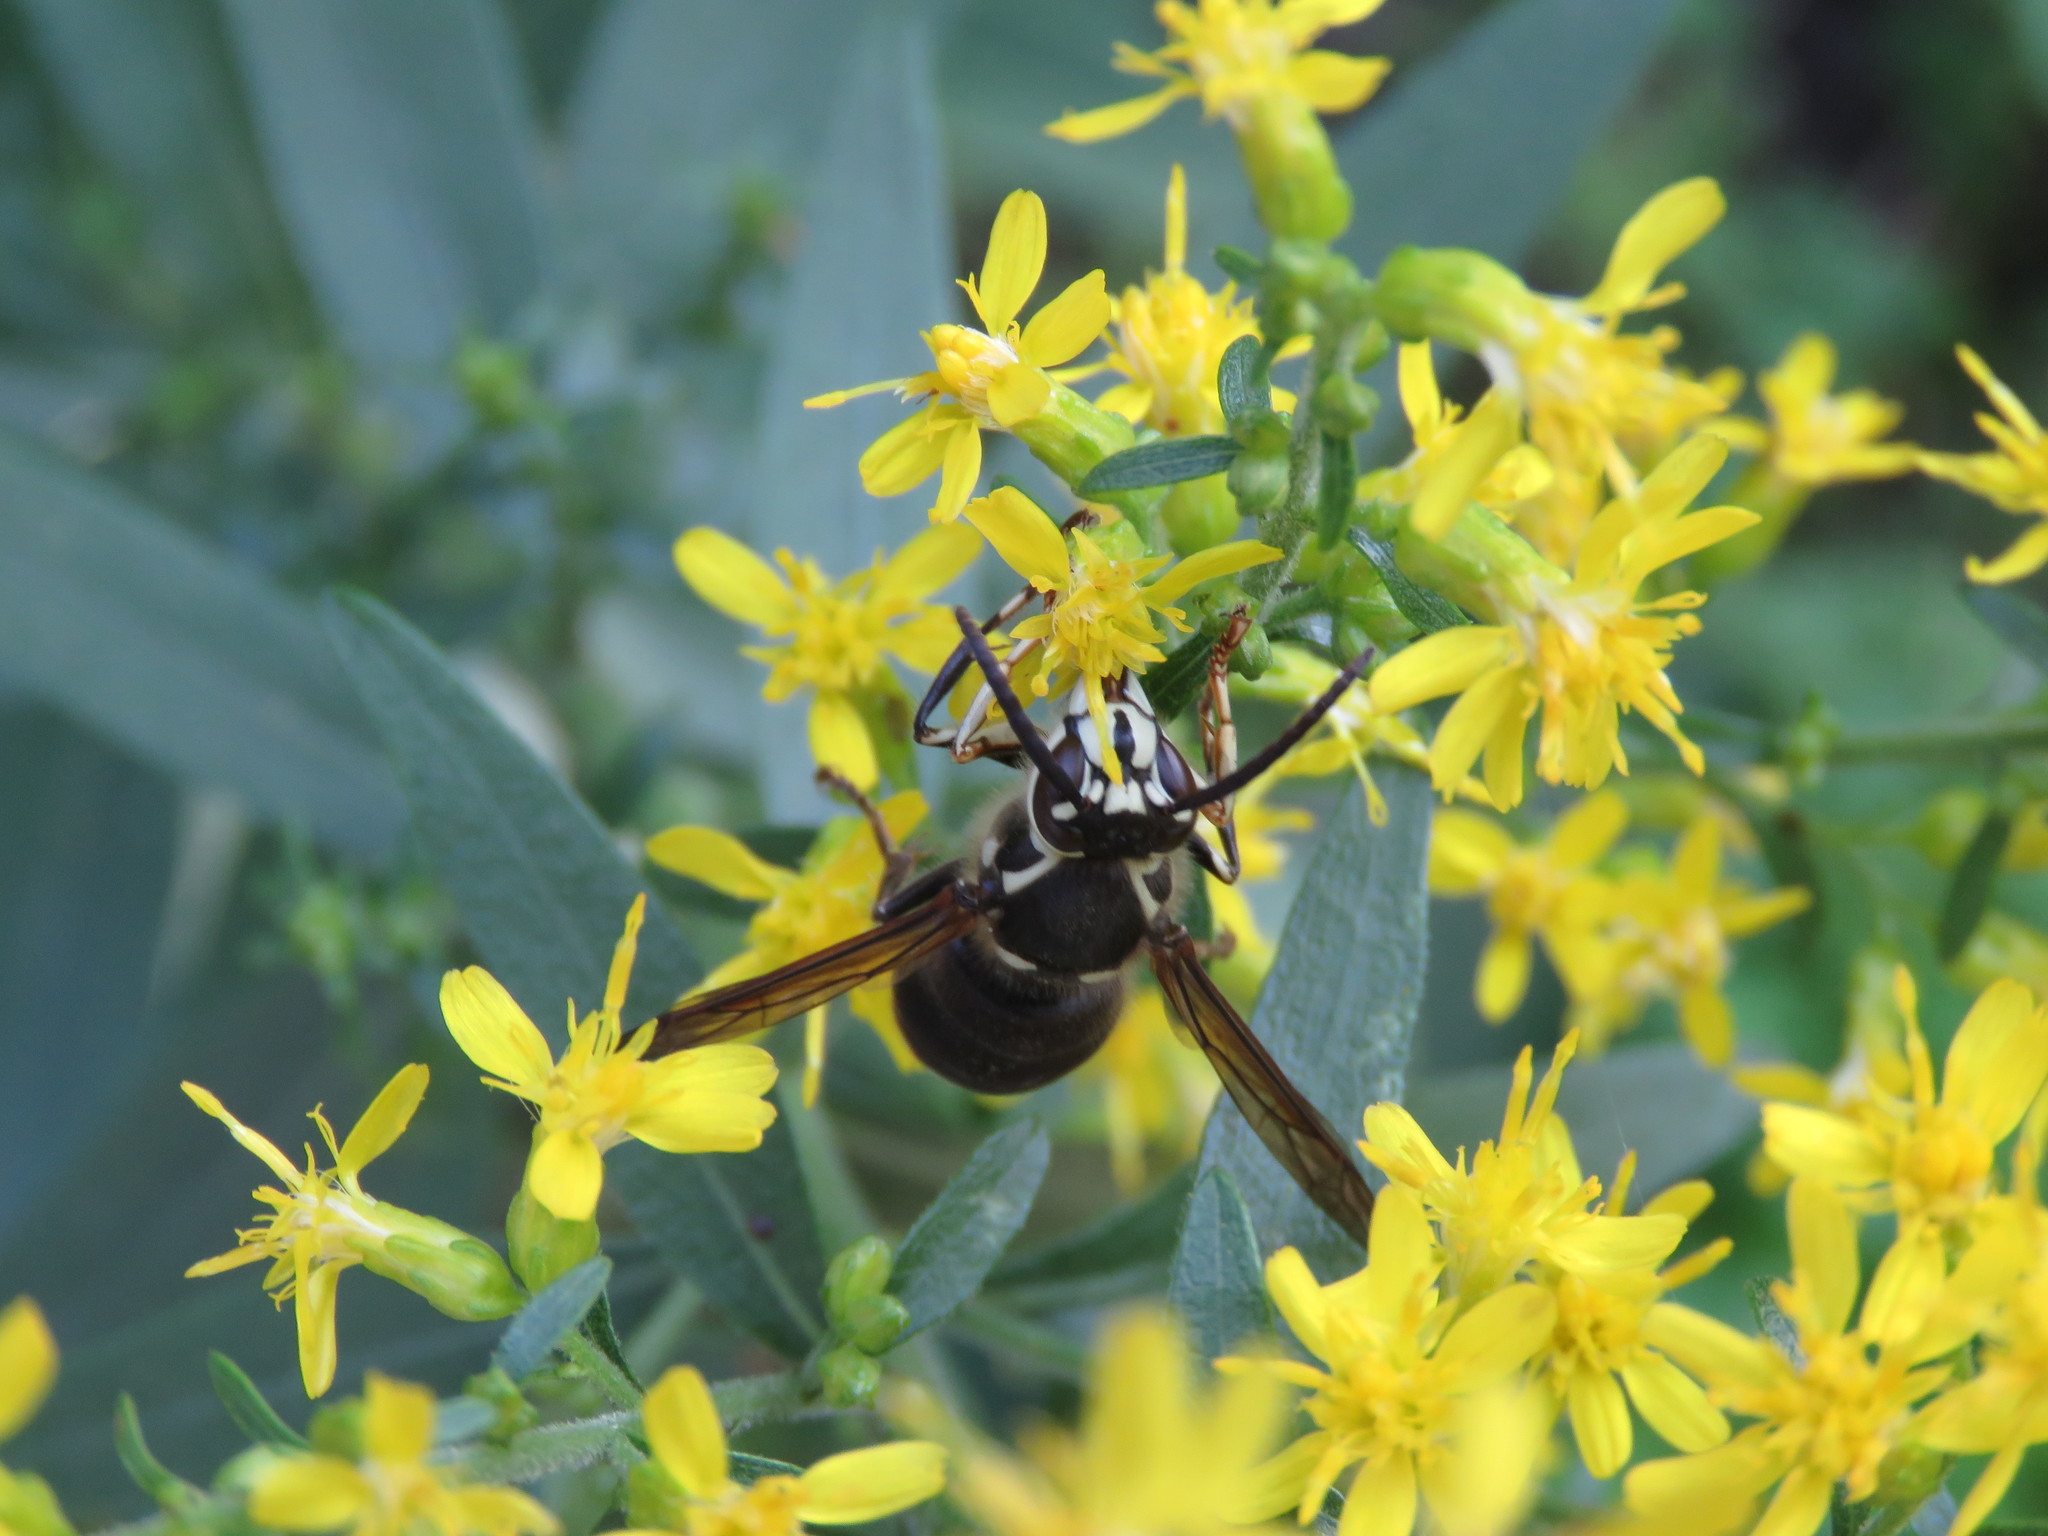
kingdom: Animalia
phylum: Arthropoda
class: Insecta
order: Hymenoptera
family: Vespidae
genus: Dolichovespula
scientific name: Dolichovespula maculata
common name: Bald-faced hornet
